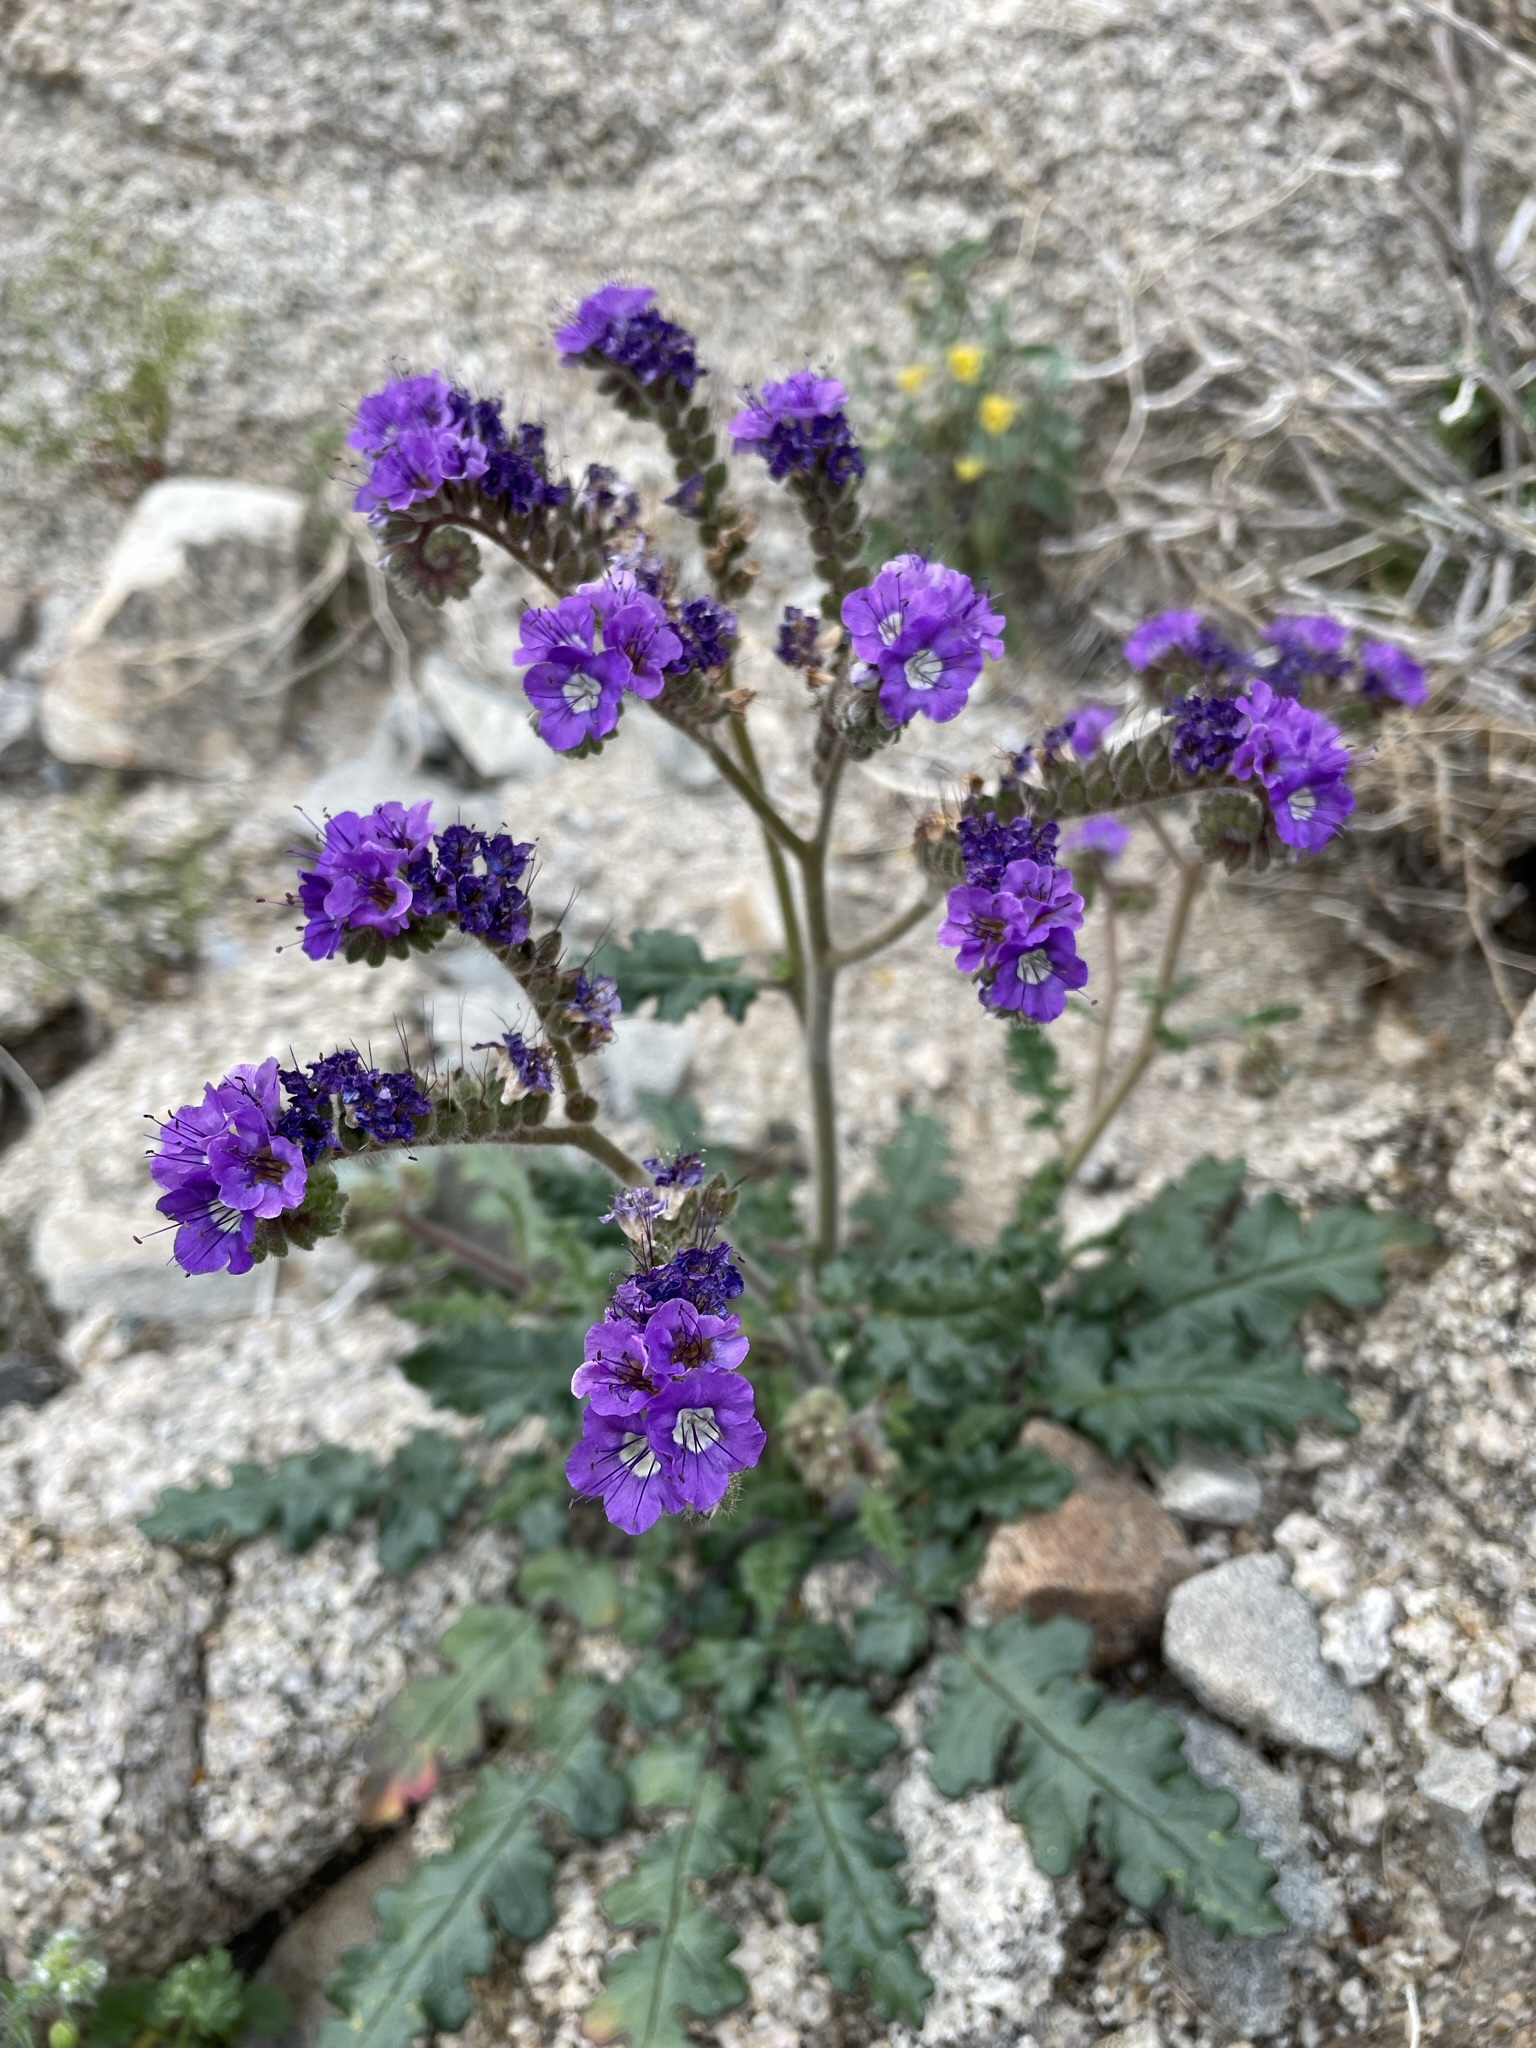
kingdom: Plantae
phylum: Tracheophyta
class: Magnoliopsida
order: Boraginales
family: Hydrophyllaceae
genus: Phacelia
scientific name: Phacelia crenulata
